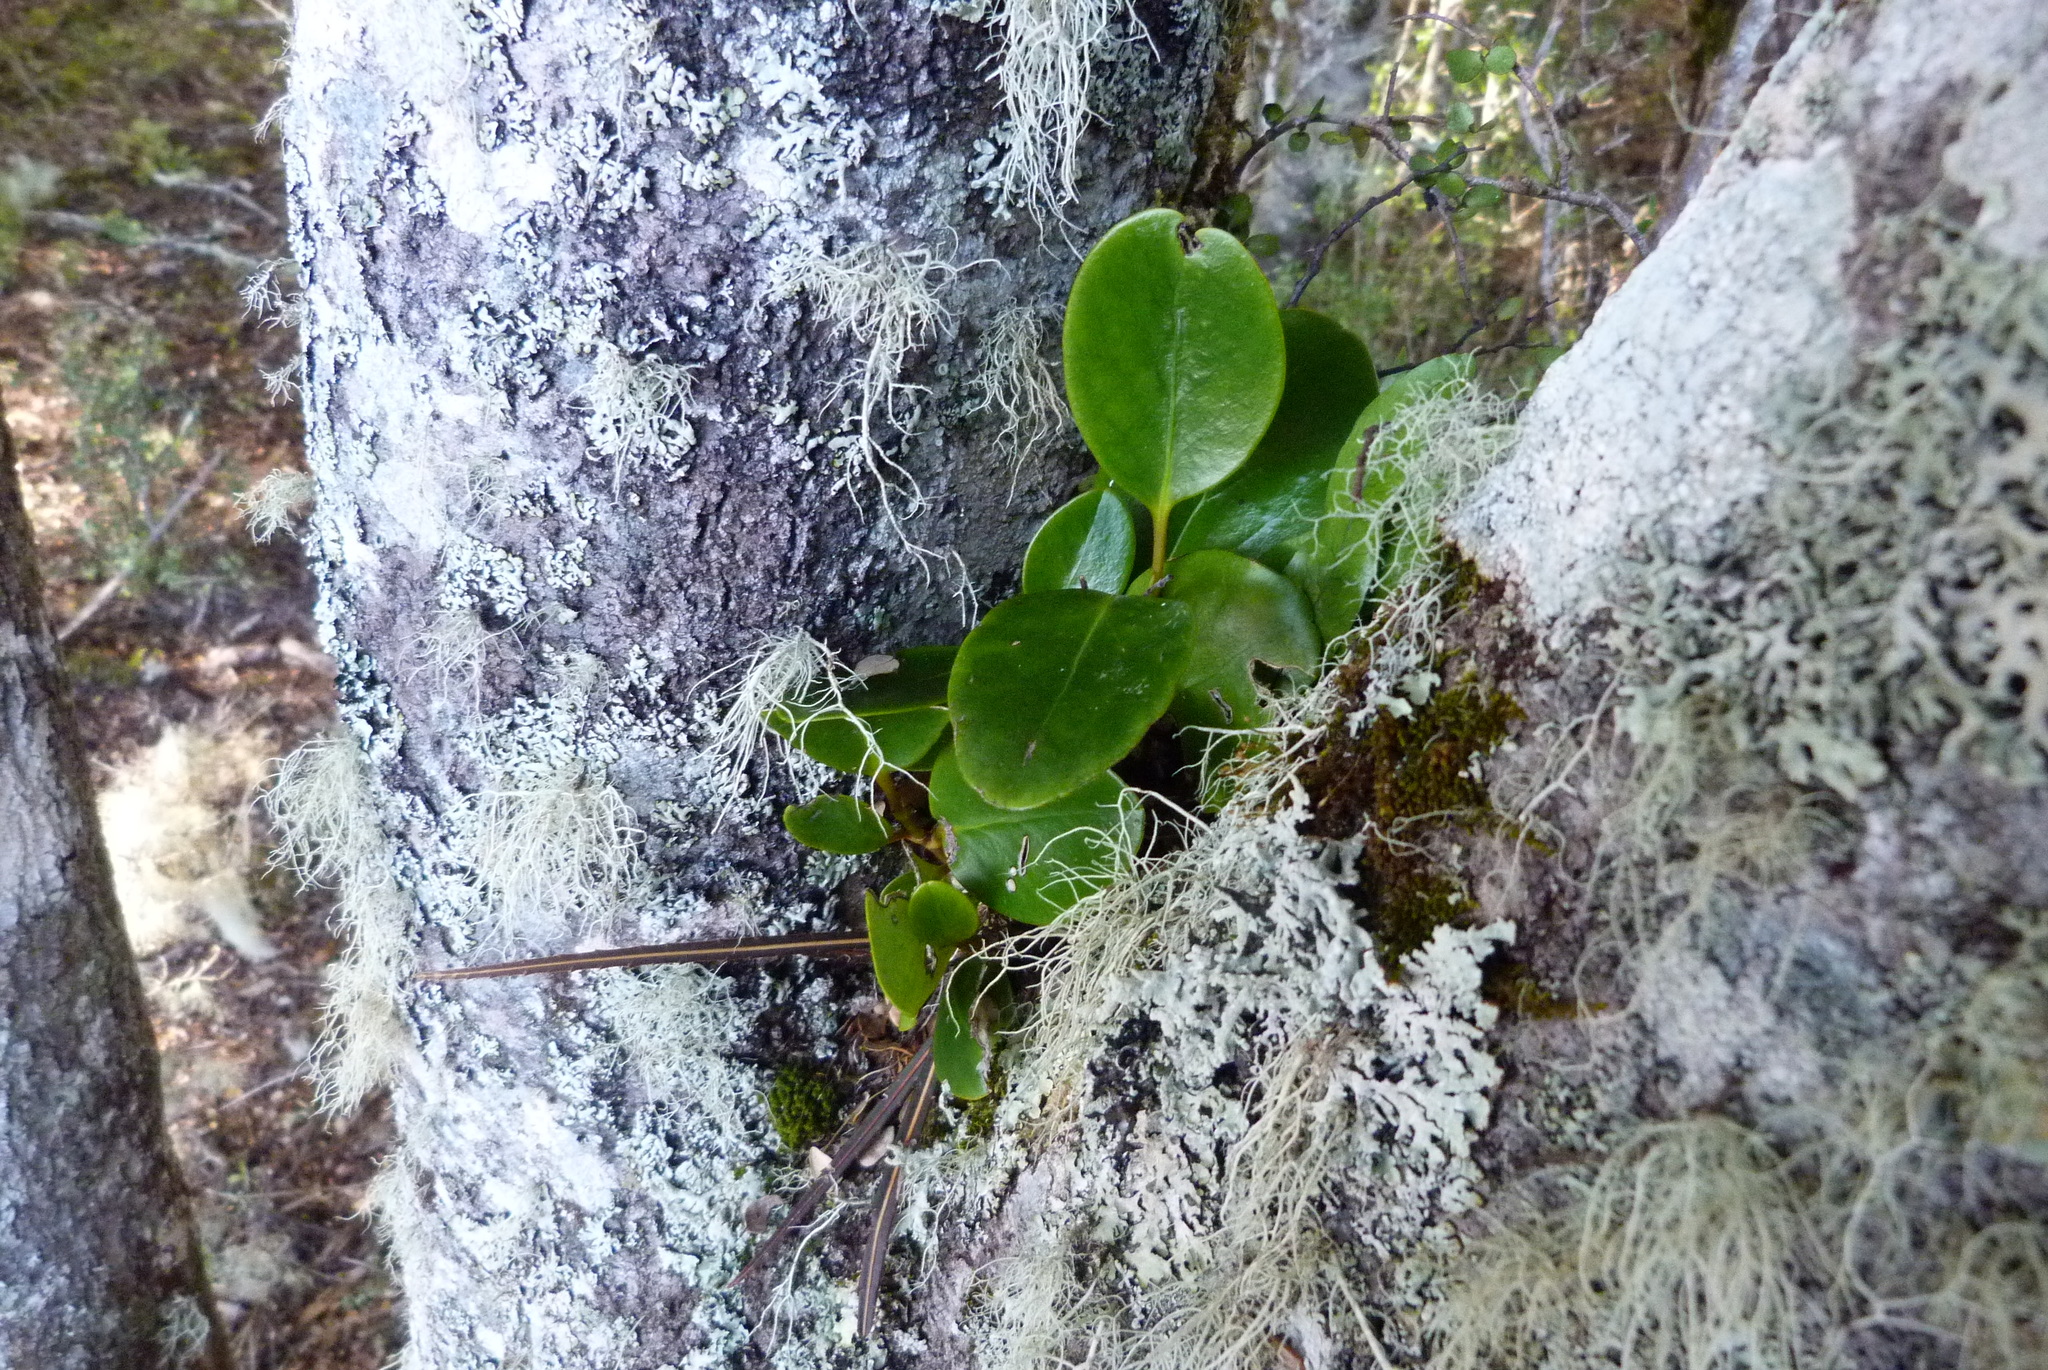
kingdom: Plantae
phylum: Tracheophyta
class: Magnoliopsida
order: Apiales
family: Griseliniaceae
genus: Griselinia
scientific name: Griselinia littoralis
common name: New zealand broadleaf
